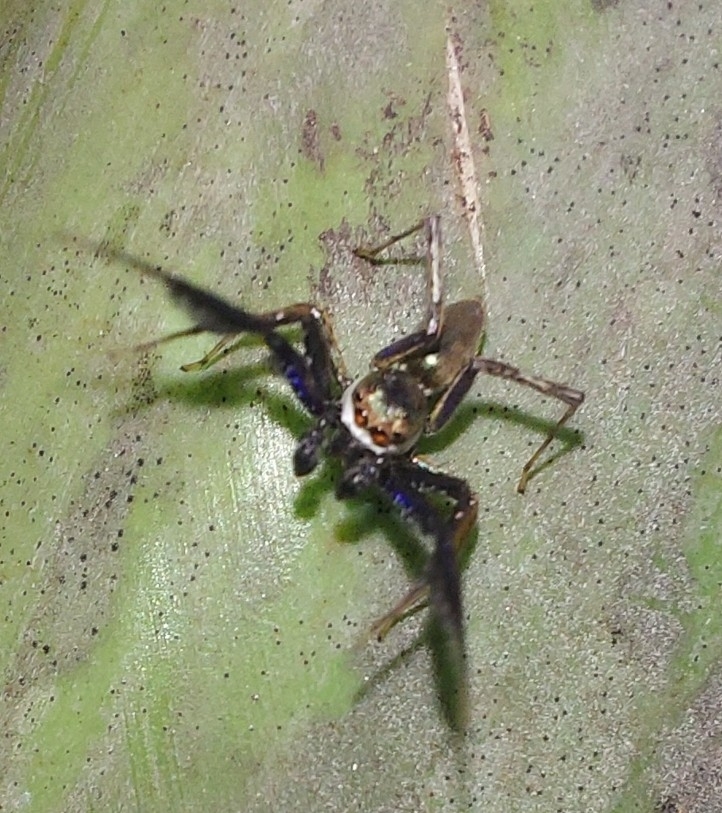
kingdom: Animalia
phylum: Arthropoda
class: Arachnida
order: Araneae
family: Salticidae
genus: Brettus
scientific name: Brettus cingulatus
